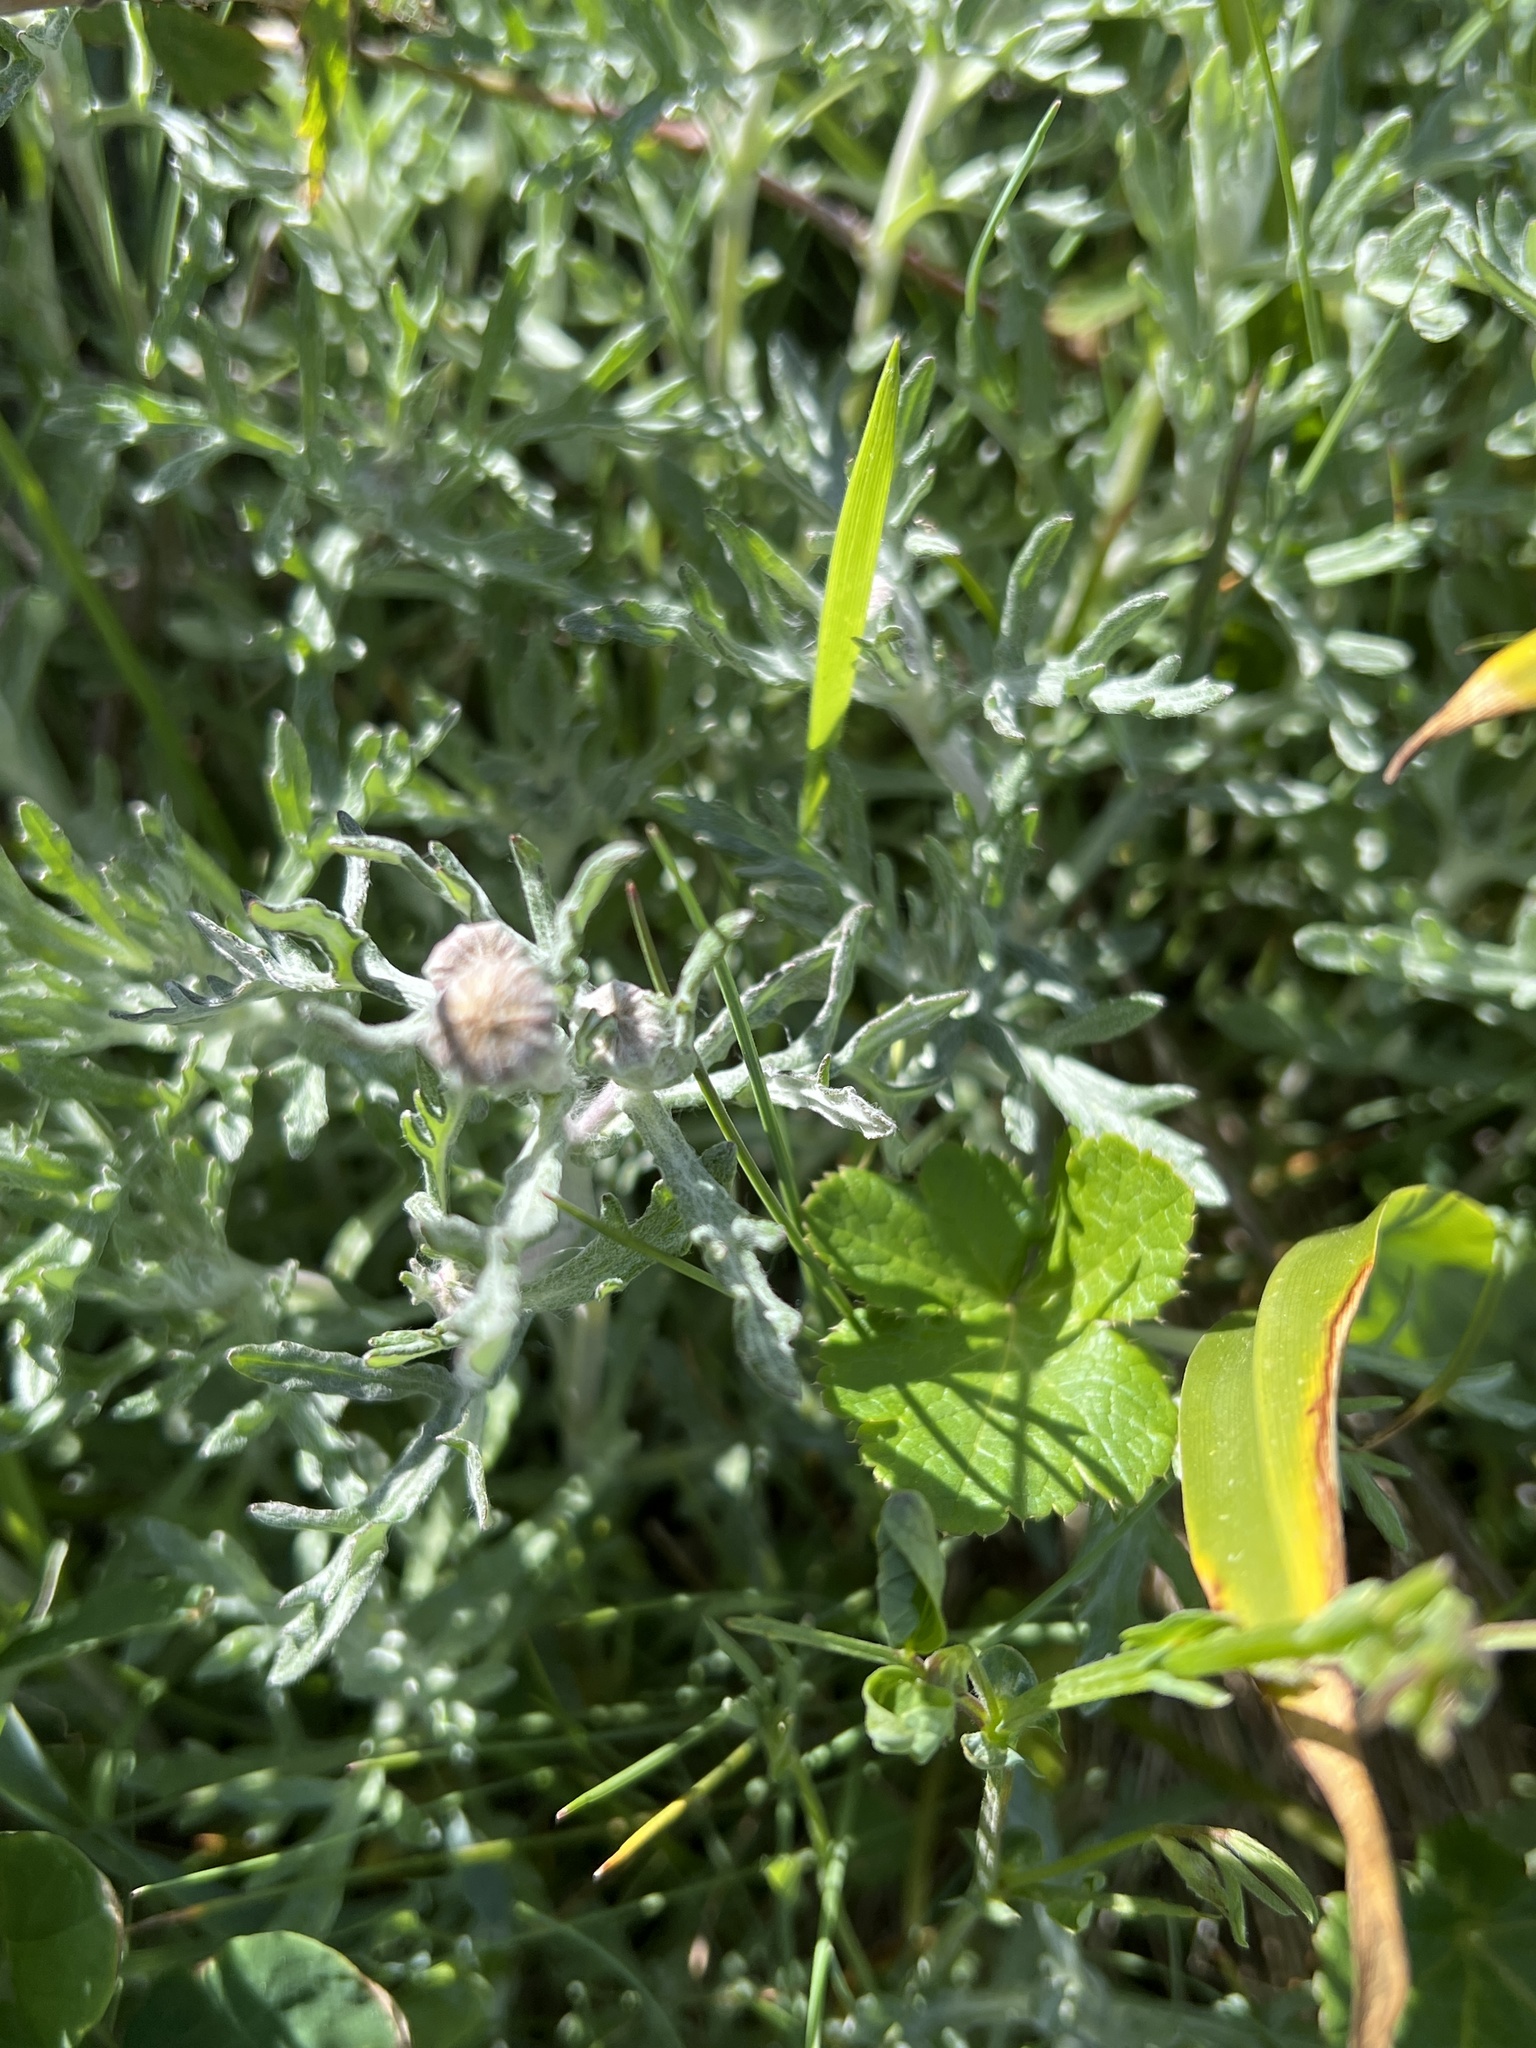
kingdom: Plantae
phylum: Tracheophyta
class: Magnoliopsida
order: Asterales
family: Asteraceae
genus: Eriophyllum
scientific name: Eriophyllum lanatum
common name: Common woolly-sunflower
